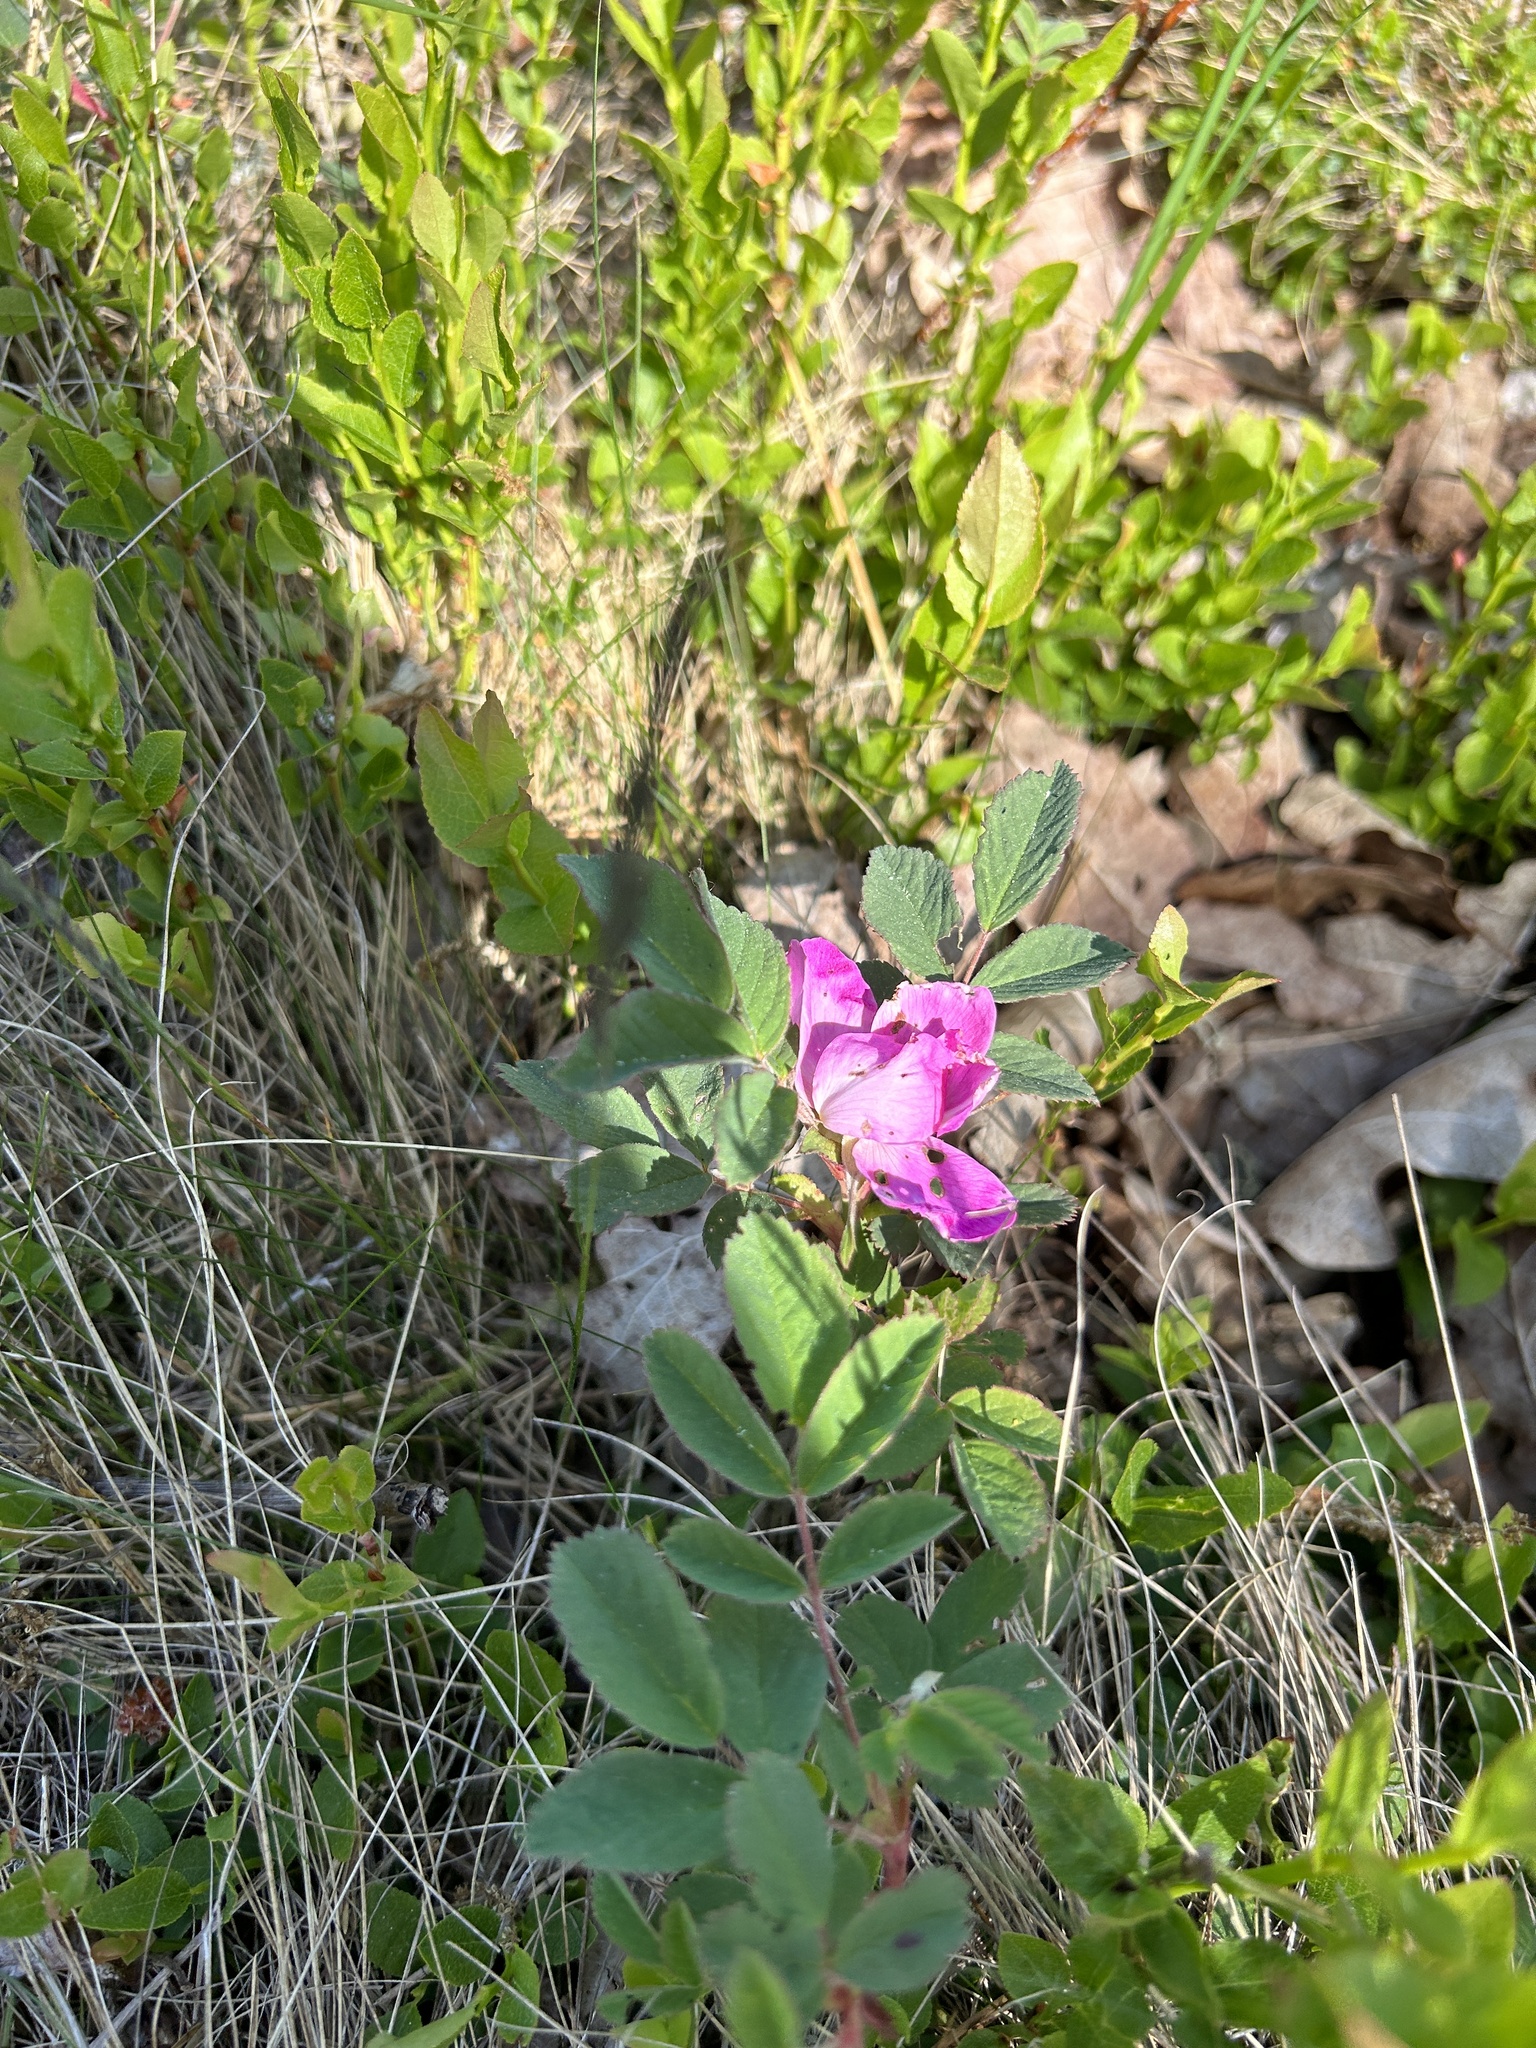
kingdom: Plantae
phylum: Tracheophyta
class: Magnoliopsida
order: Rosales
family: Rosaceae
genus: Rosa
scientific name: Rosa rugosa
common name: Japanese rose
